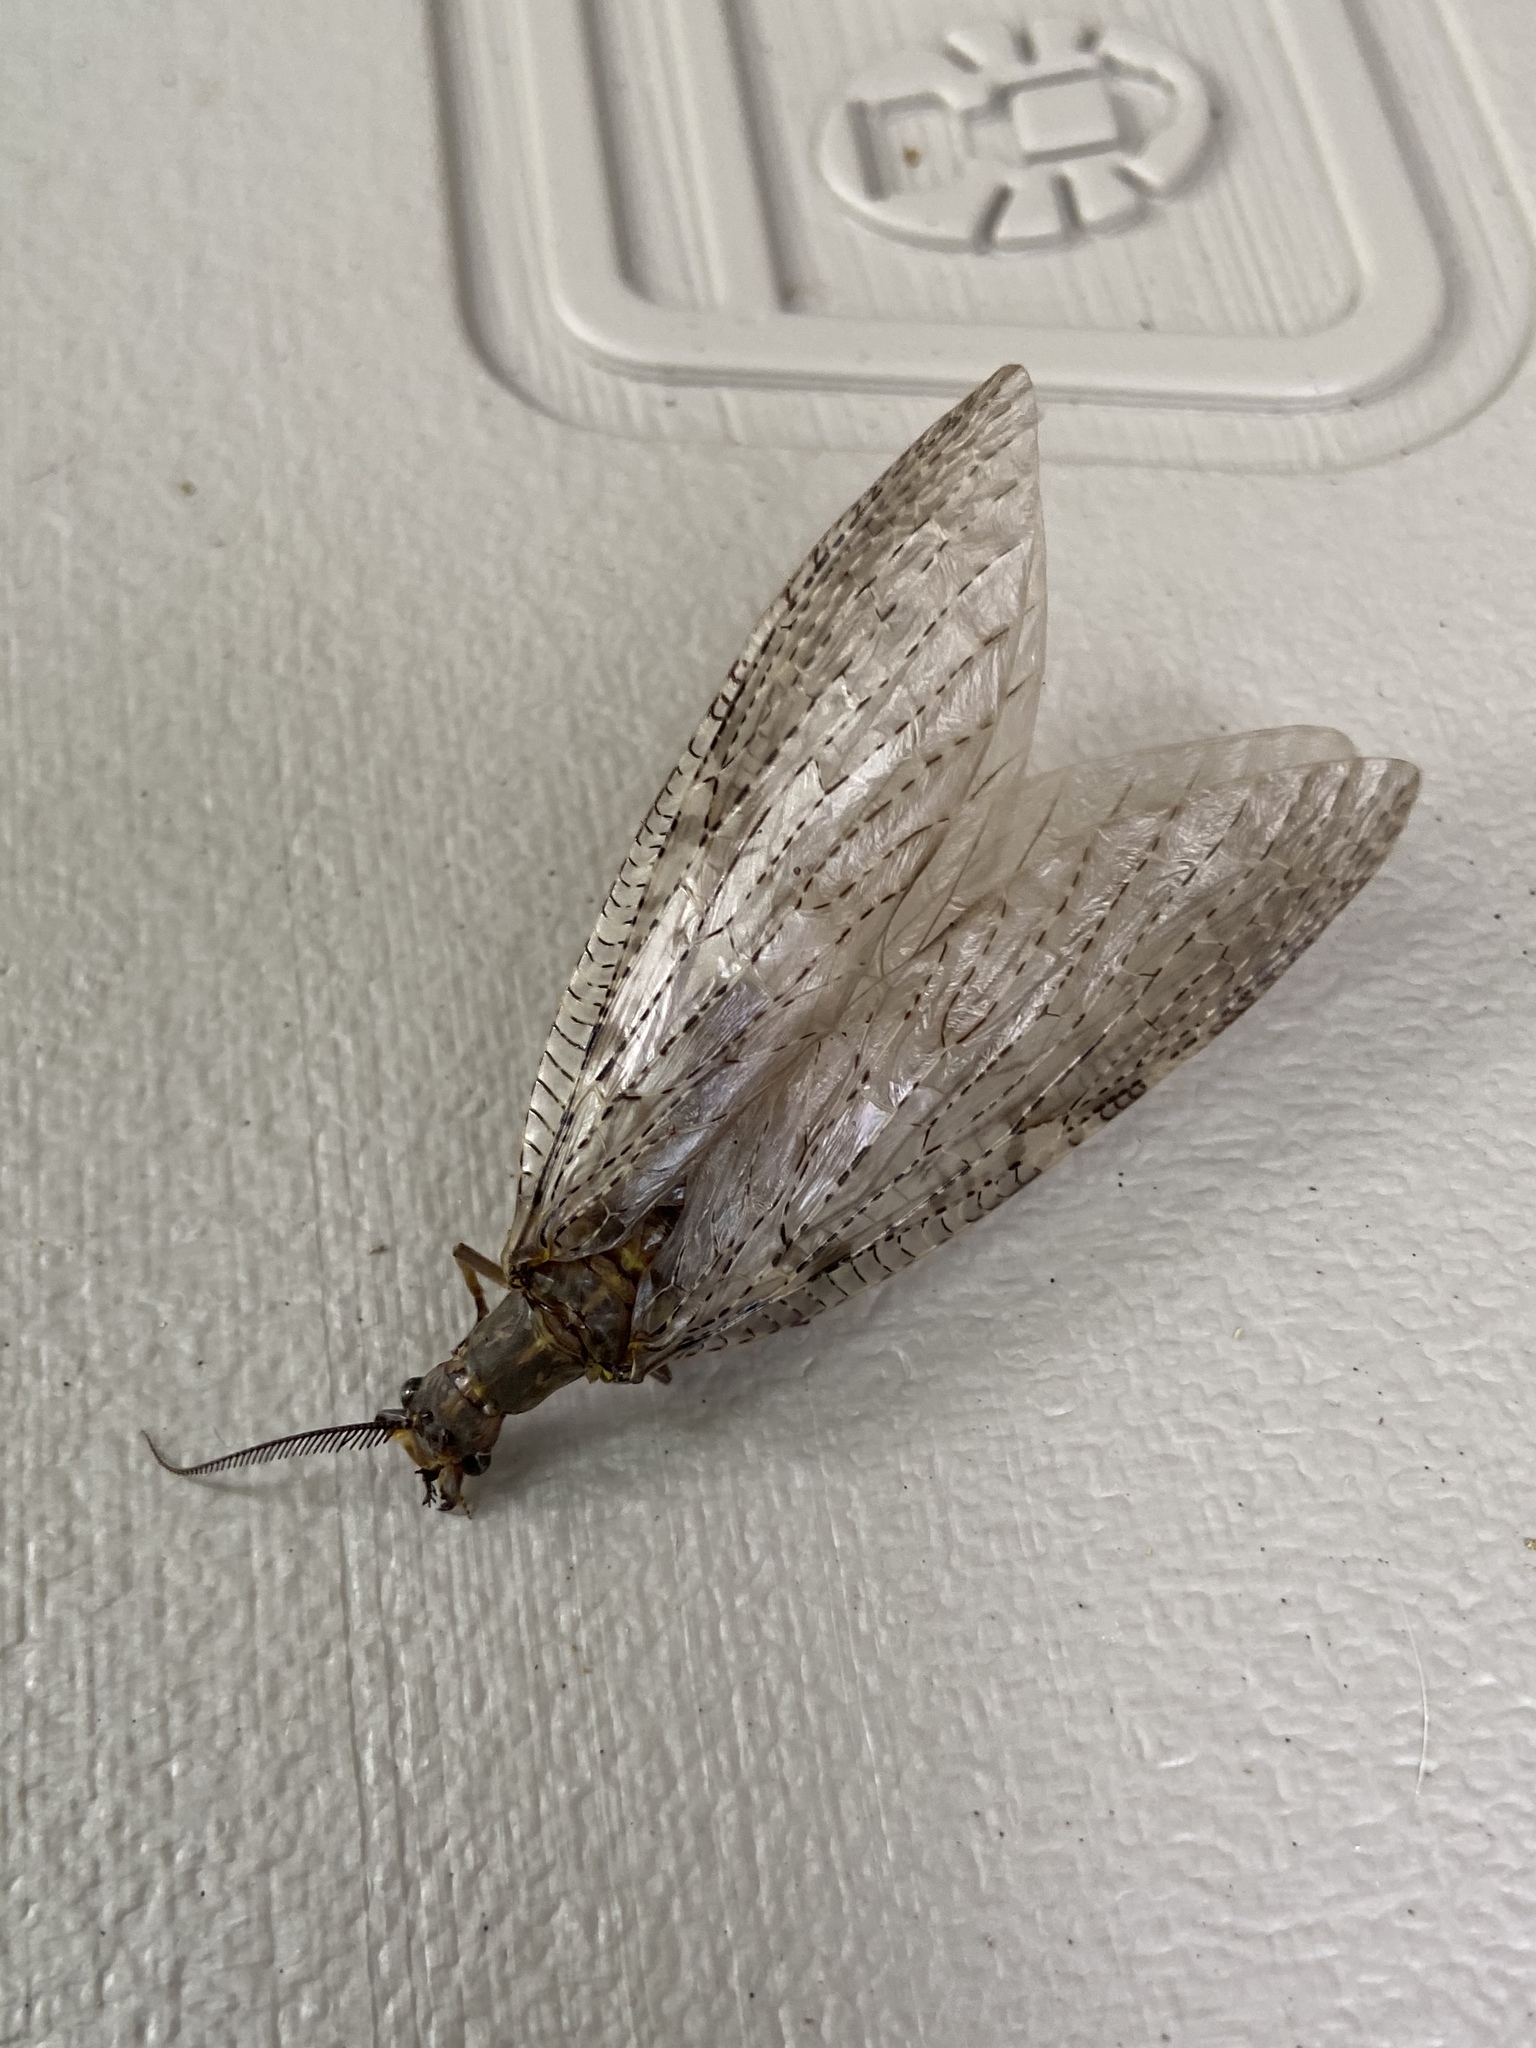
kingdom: Animalia
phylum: Arthropoda
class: Insecta
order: Megaloptera
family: Corydalidae
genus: Chauliodes
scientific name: Chauliodes pectinicornis
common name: Summer fishfly
